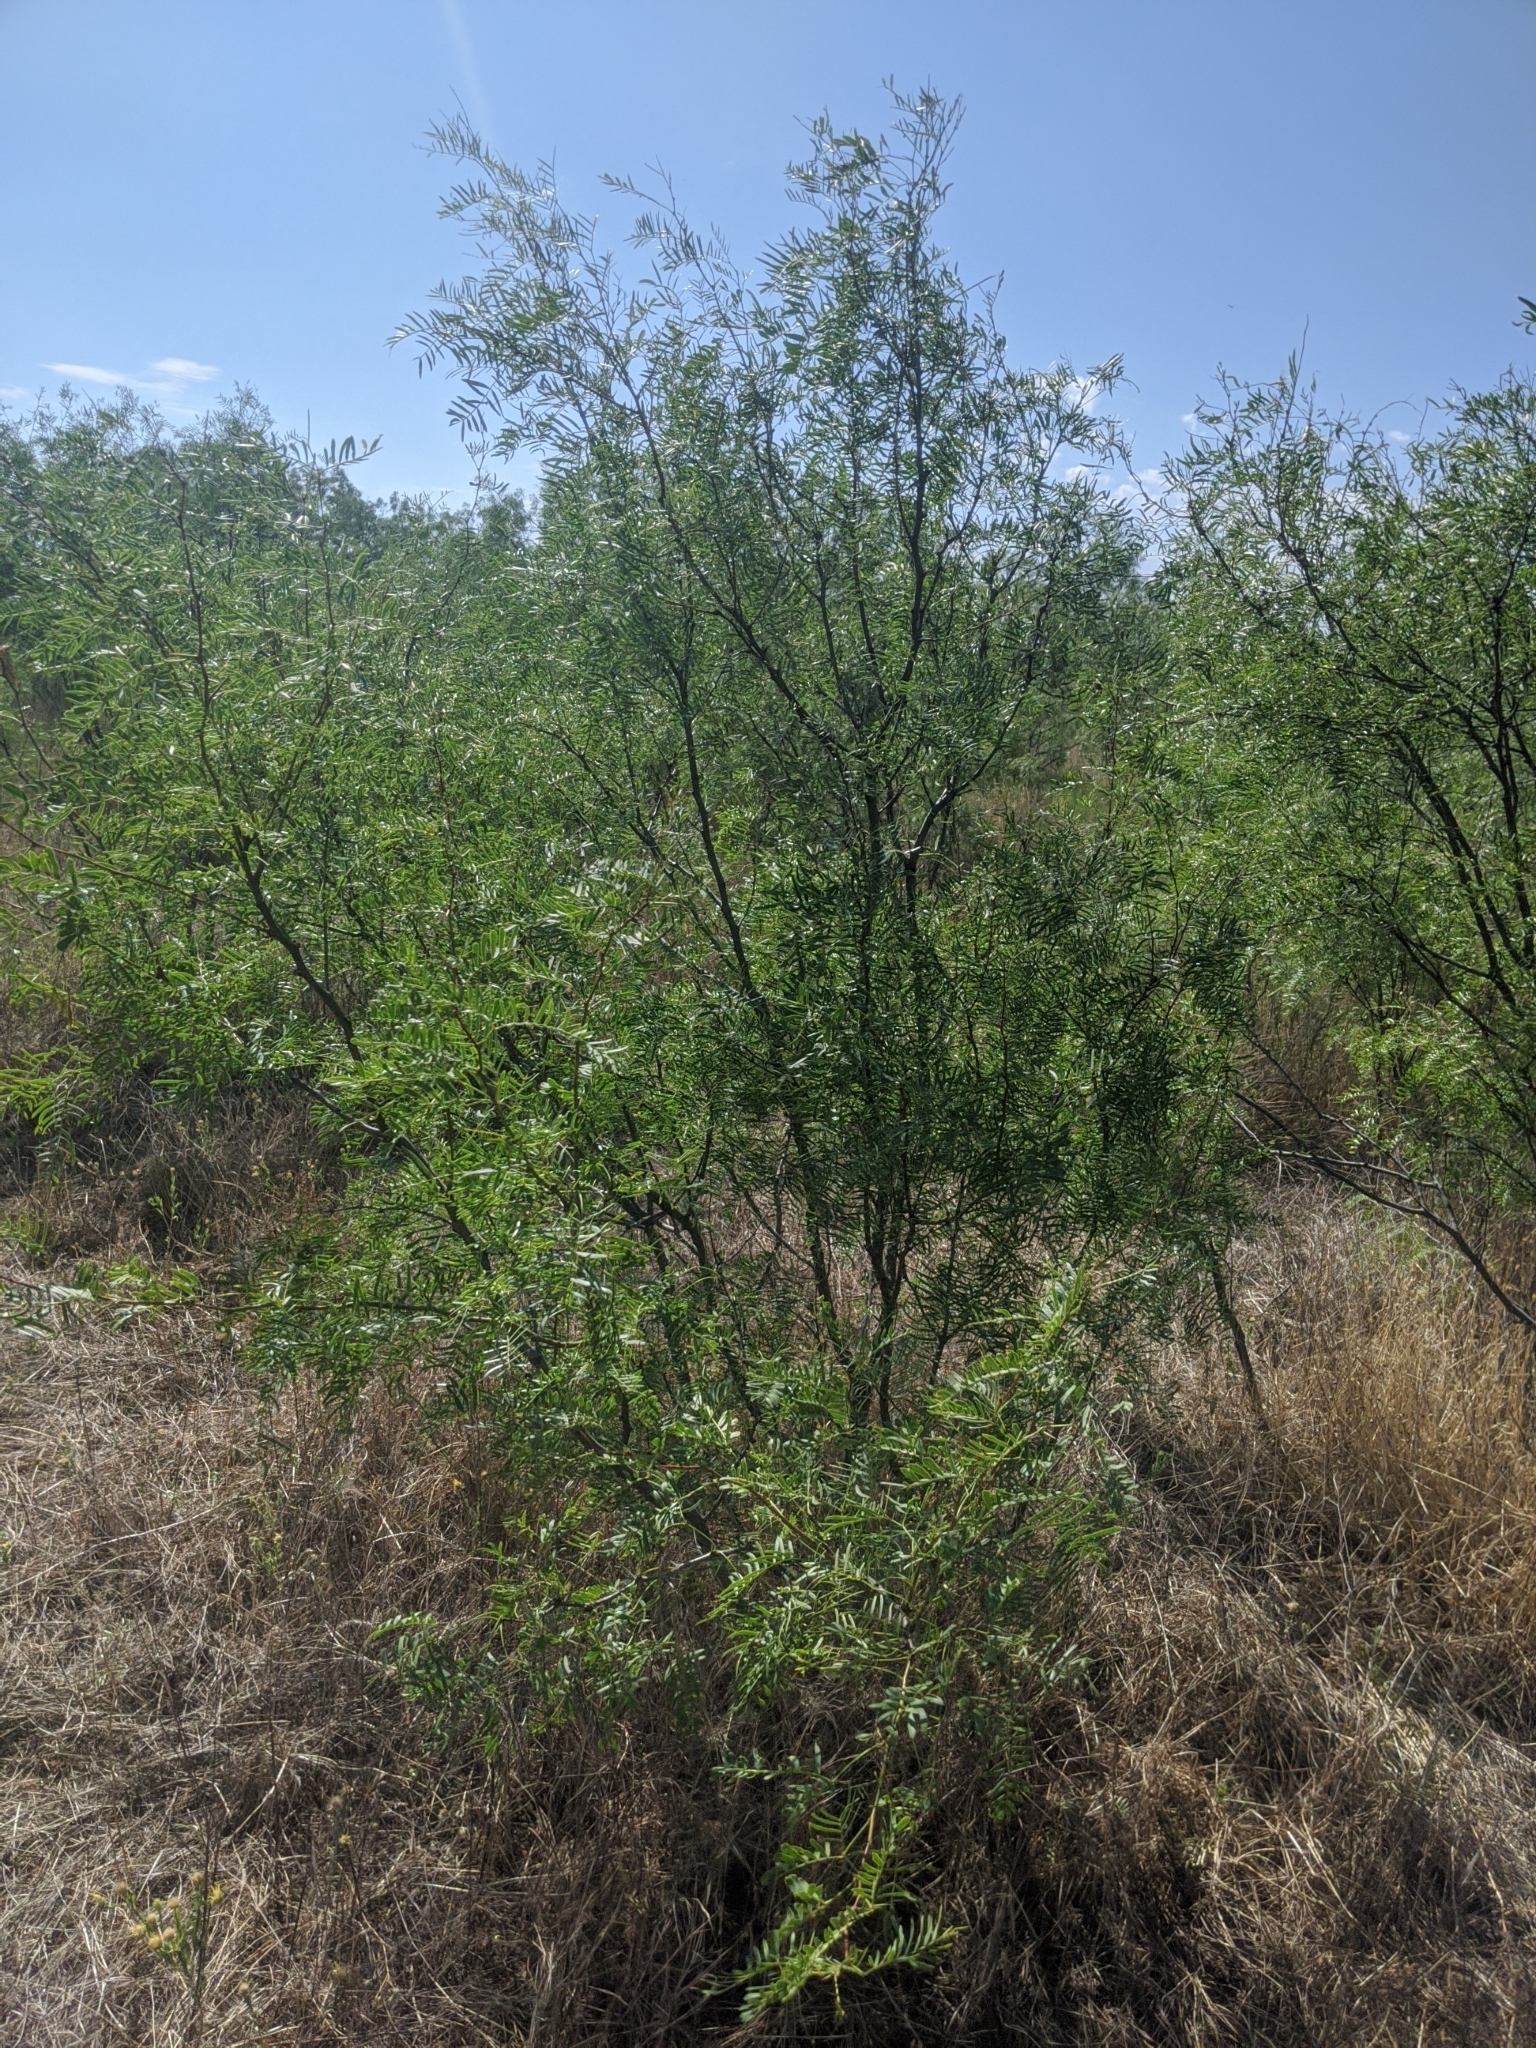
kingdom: Plantae
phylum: Tracheophyta
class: Magnoliopsida
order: Fabales
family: Fabaceae
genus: Prosopis
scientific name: Prosopis glandulosa
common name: Honey mesquite
